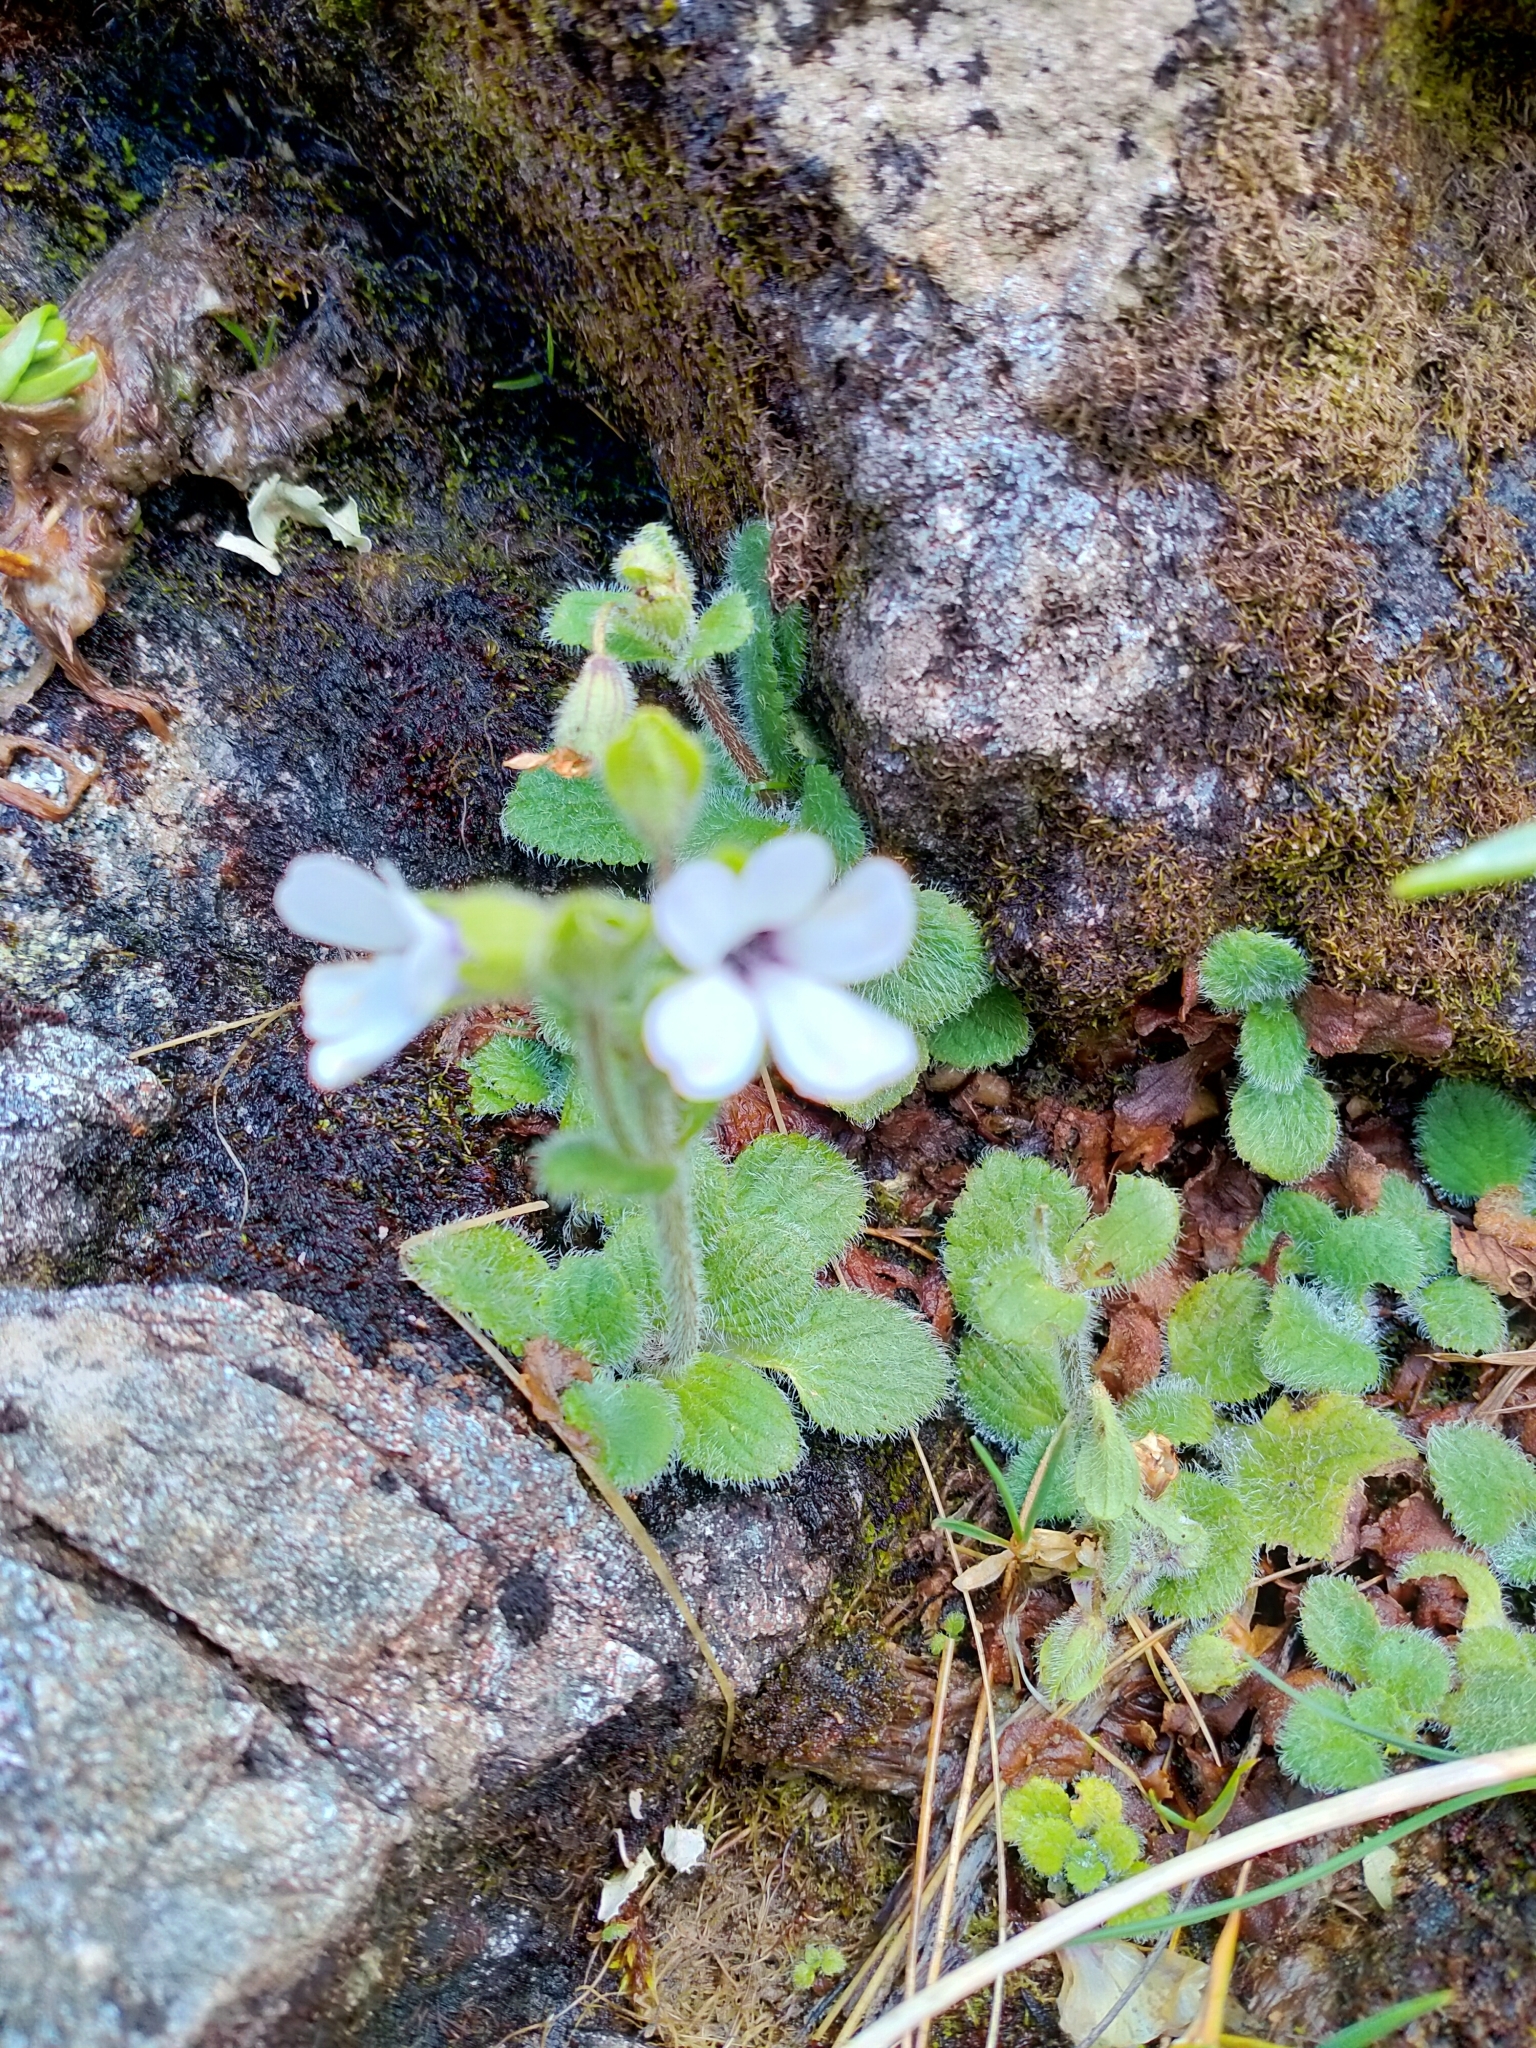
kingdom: Plantae
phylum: Tracheophyta
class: Magnoliopsida
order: Lamiales
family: Plantaginaceae
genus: Ourisia
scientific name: Ourisia remotifolia
